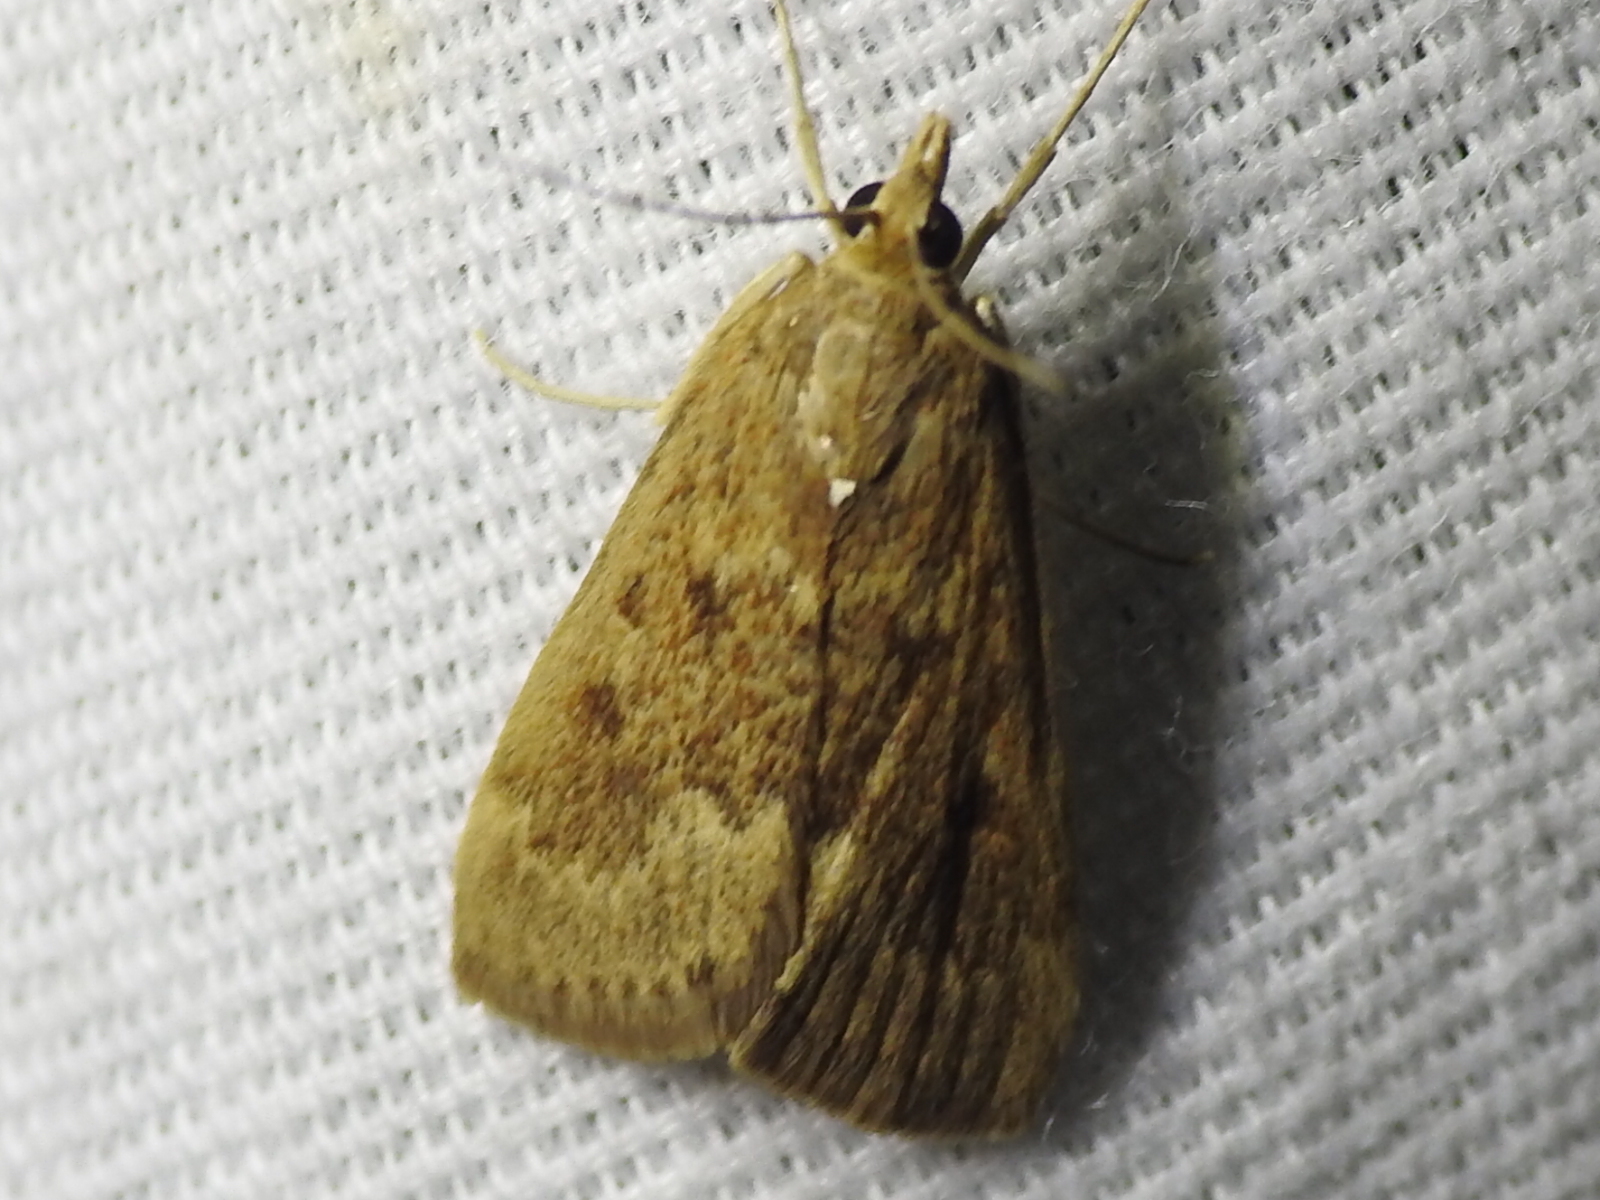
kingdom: Animalia
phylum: Arthropoda
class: Insecta
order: Lepidoptera
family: Crambidae
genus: Achyra
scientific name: Achyra rantalis
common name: Garden webworm
